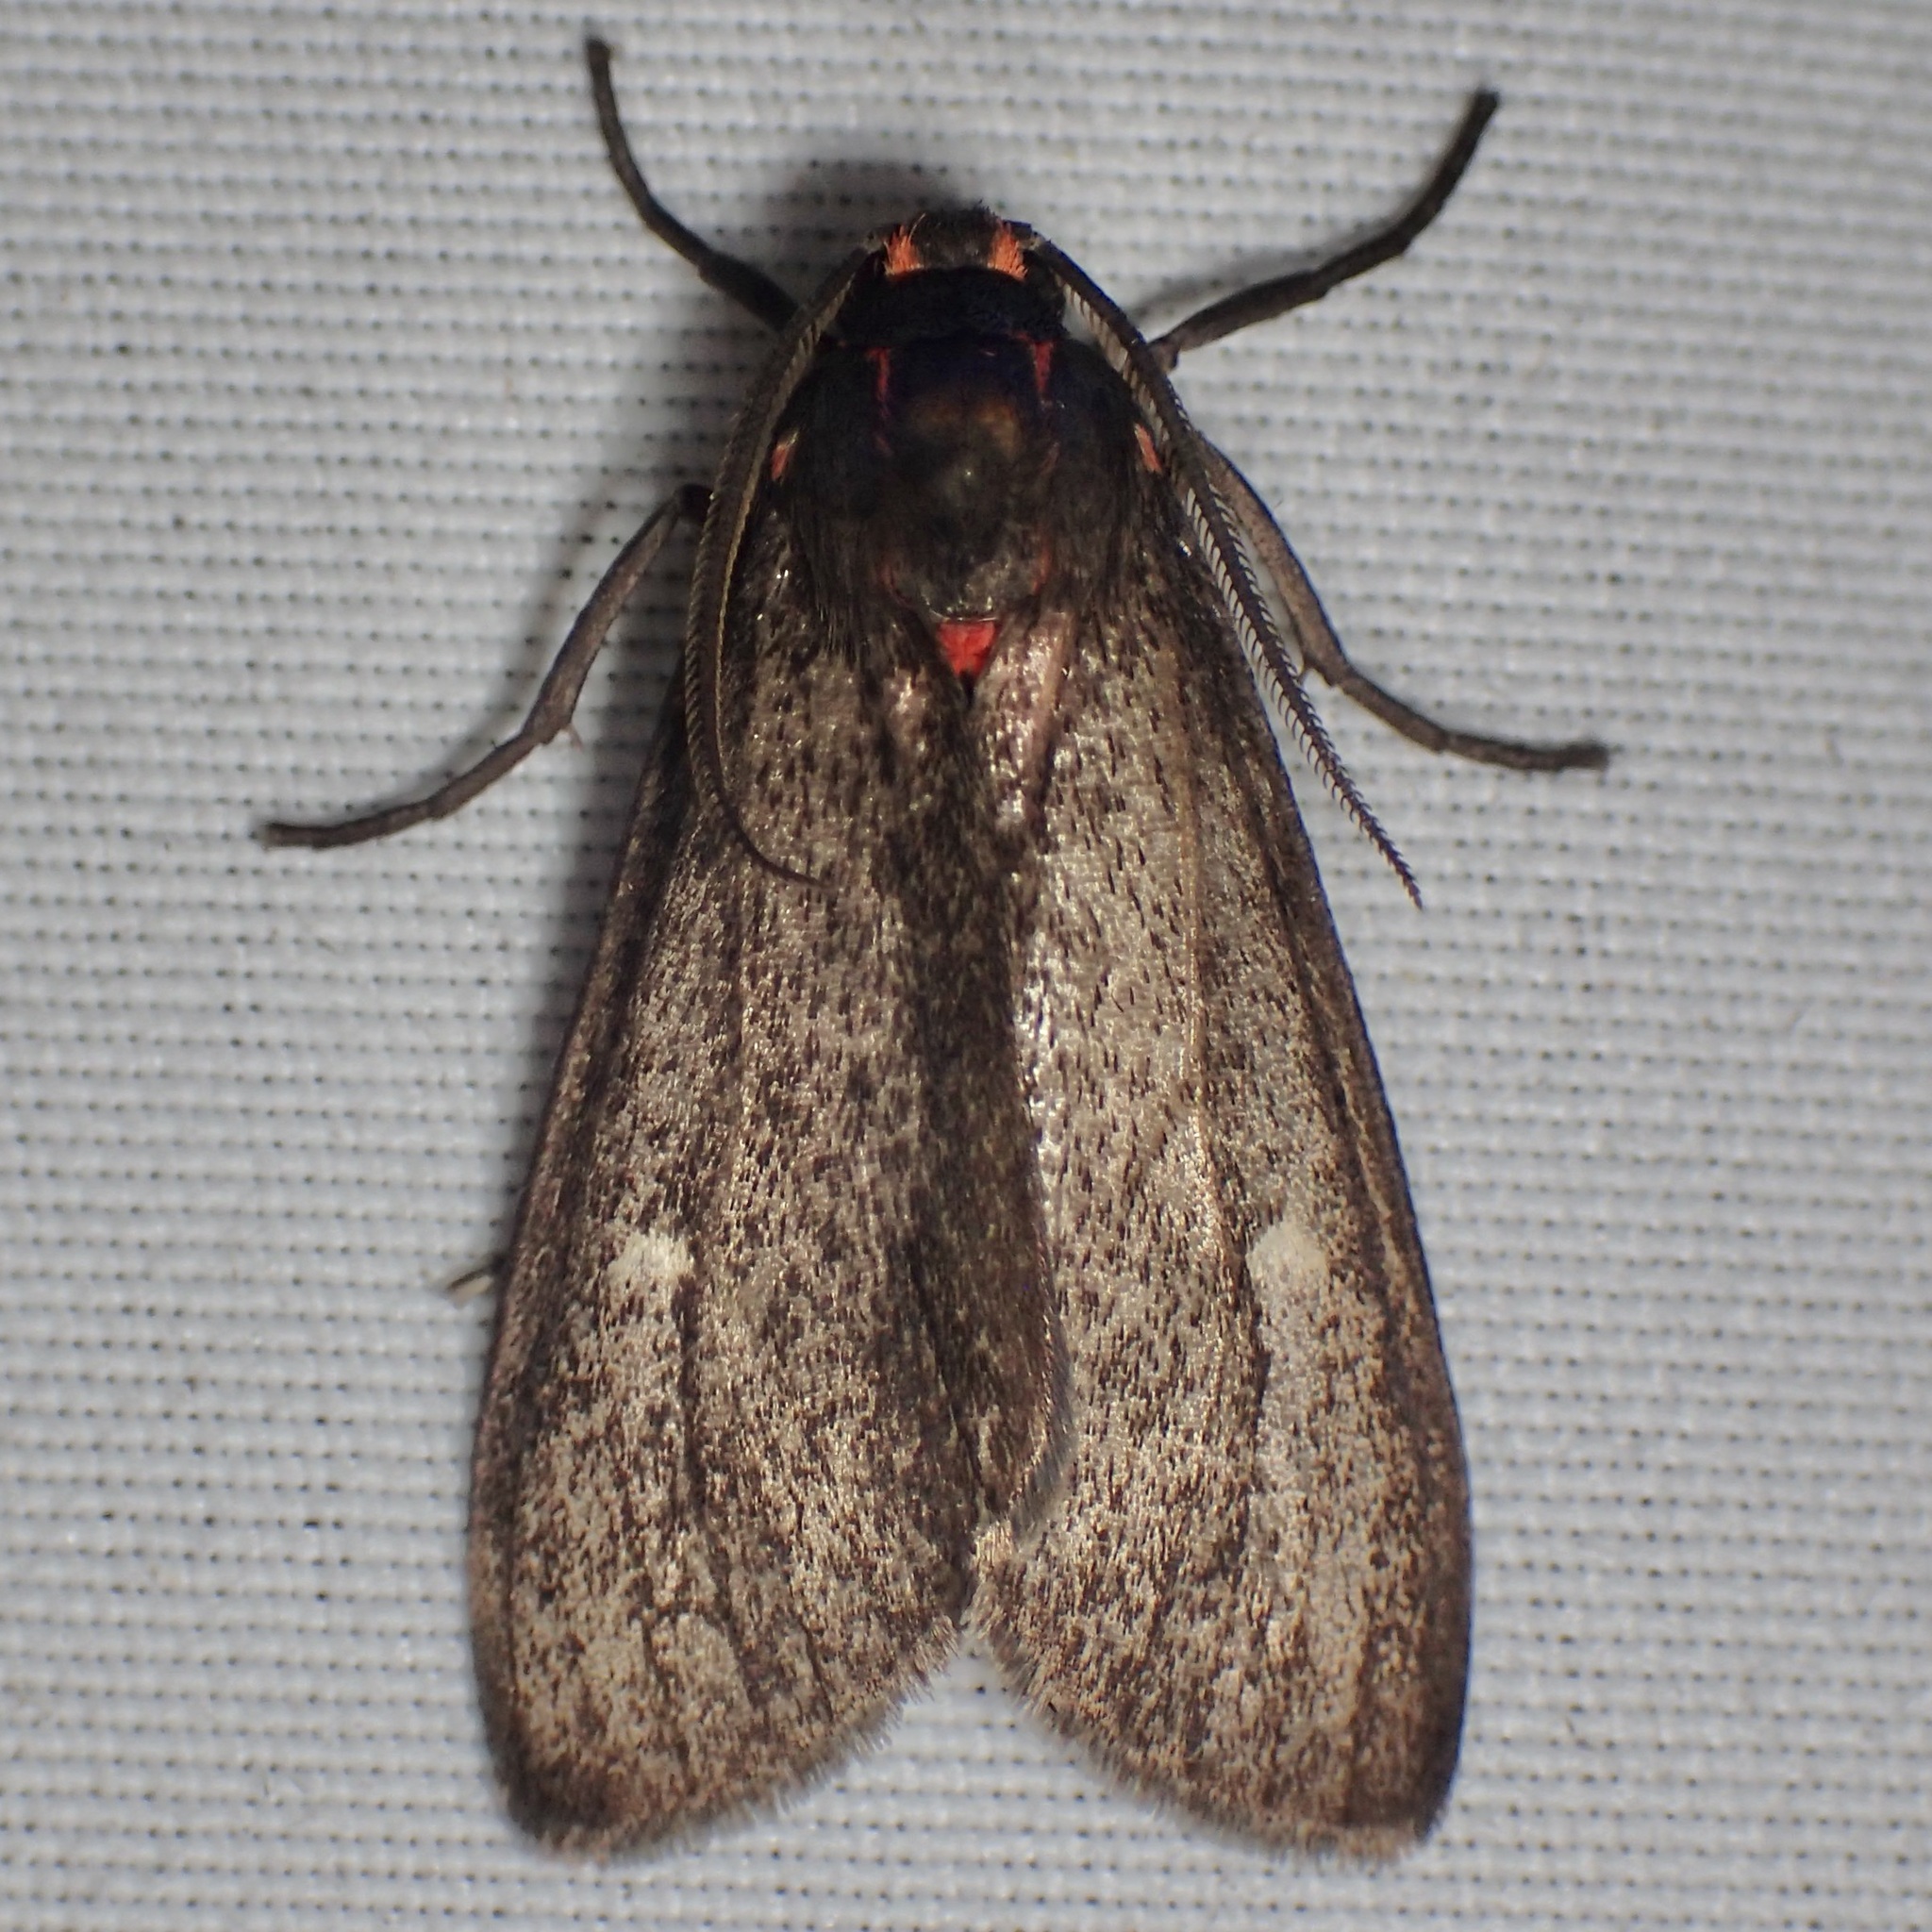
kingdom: Animalia
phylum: Arthropoda
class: Insecta
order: Lepidoptera
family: Erebidae
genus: Euchaetes
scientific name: Euchaetes zella
